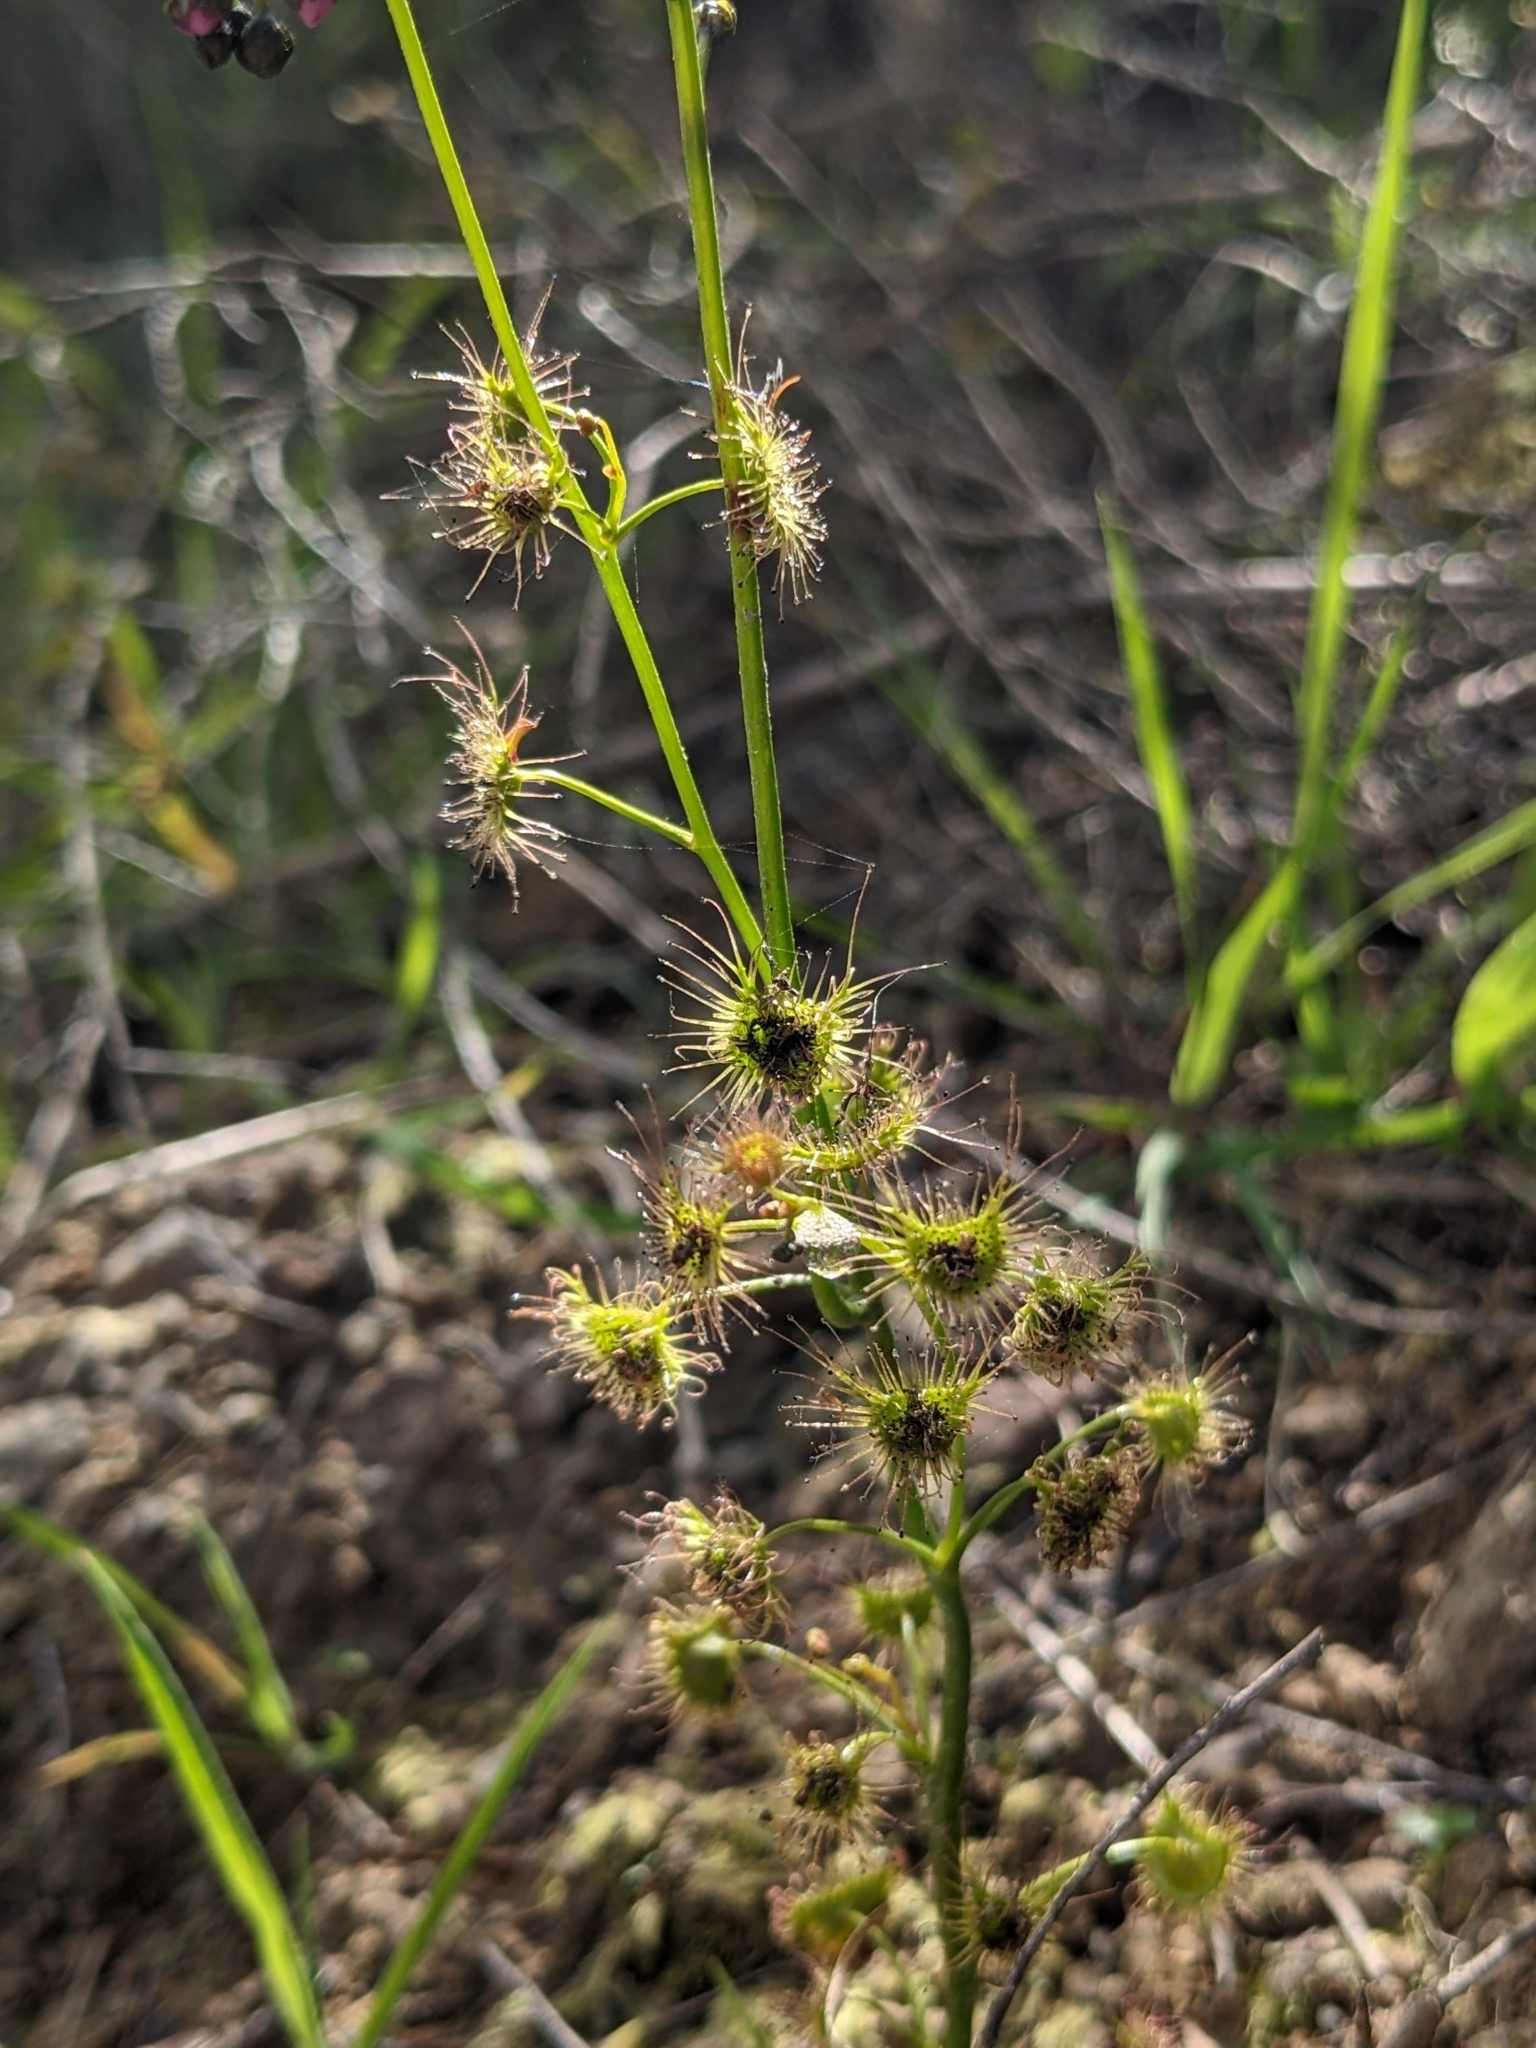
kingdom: Plantae
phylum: Tracheophyta
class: Magnoliopsida
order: Caryophyllales
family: Droseraceae
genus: Drosera
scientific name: Drosera peltata
